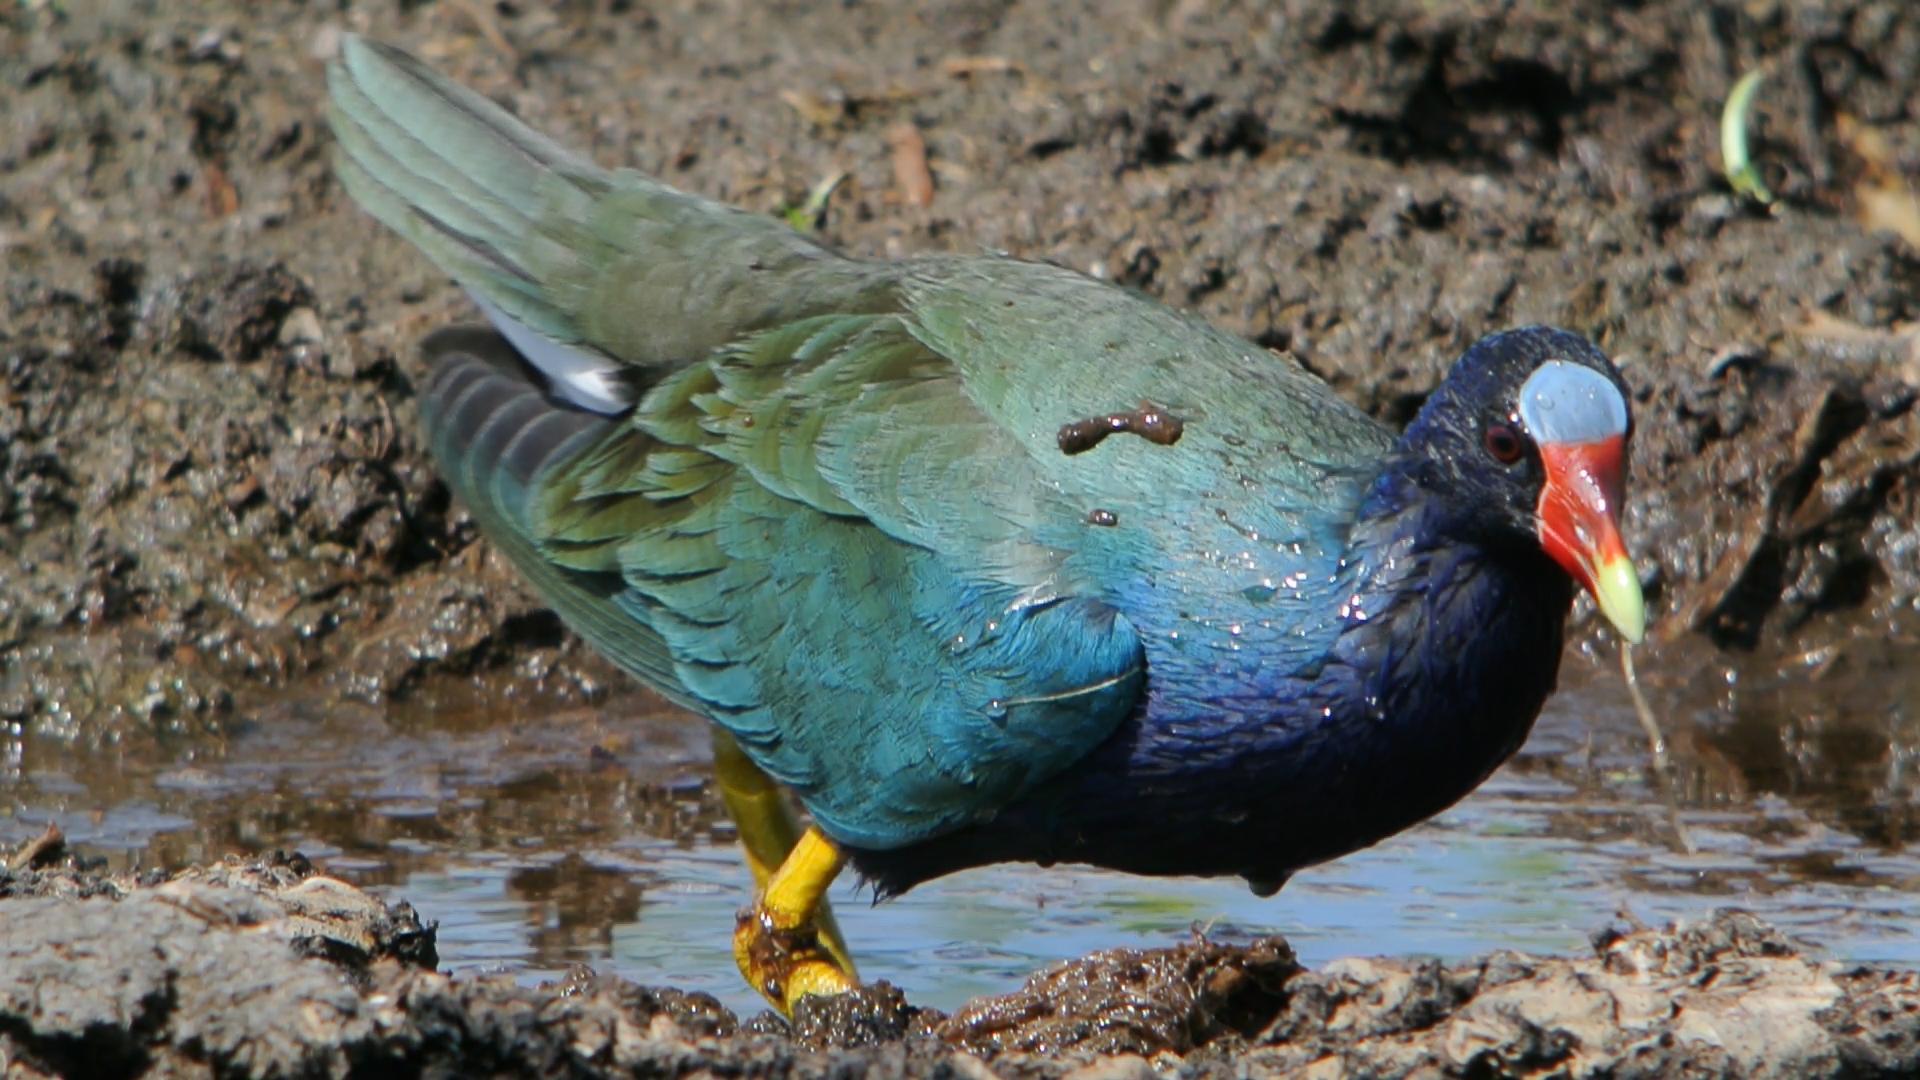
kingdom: Animalia
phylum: Chordata
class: Aves
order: Gruiformes
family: Rallidae
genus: Porphyrio
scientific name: Porphyrio martinica
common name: Purple gallinule
